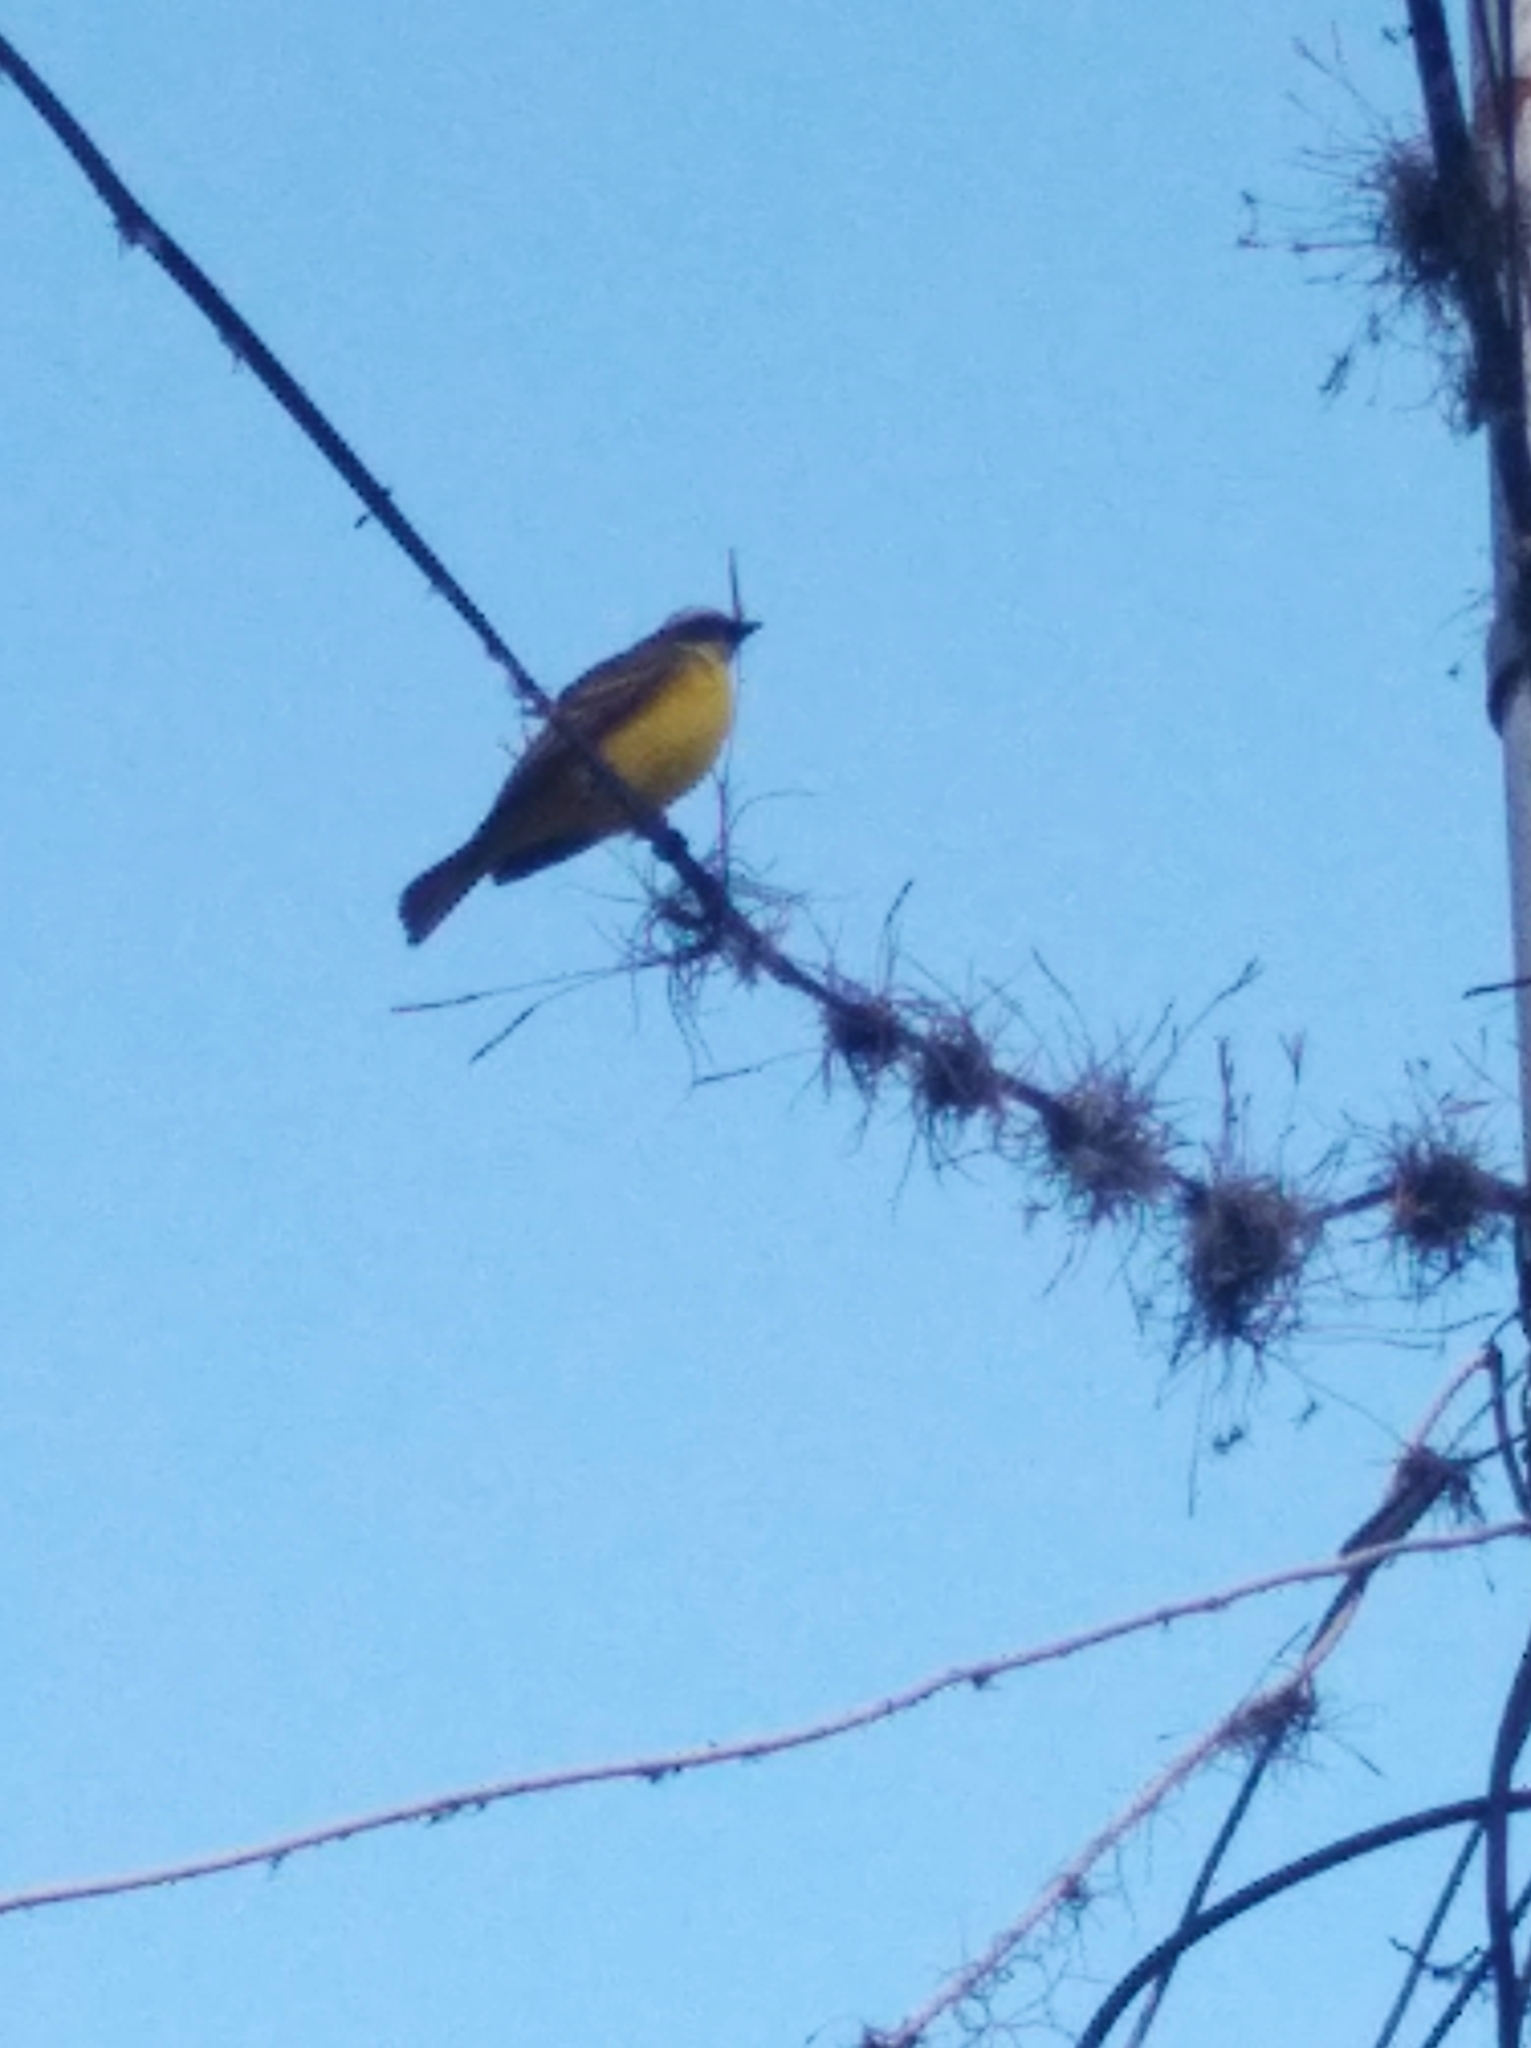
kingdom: Animalia
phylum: Chordata
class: Aves
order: Passeriformes
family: Tyrannidae
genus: Myiozetetes
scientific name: Myiozetetes similis
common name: Social flycatcher
